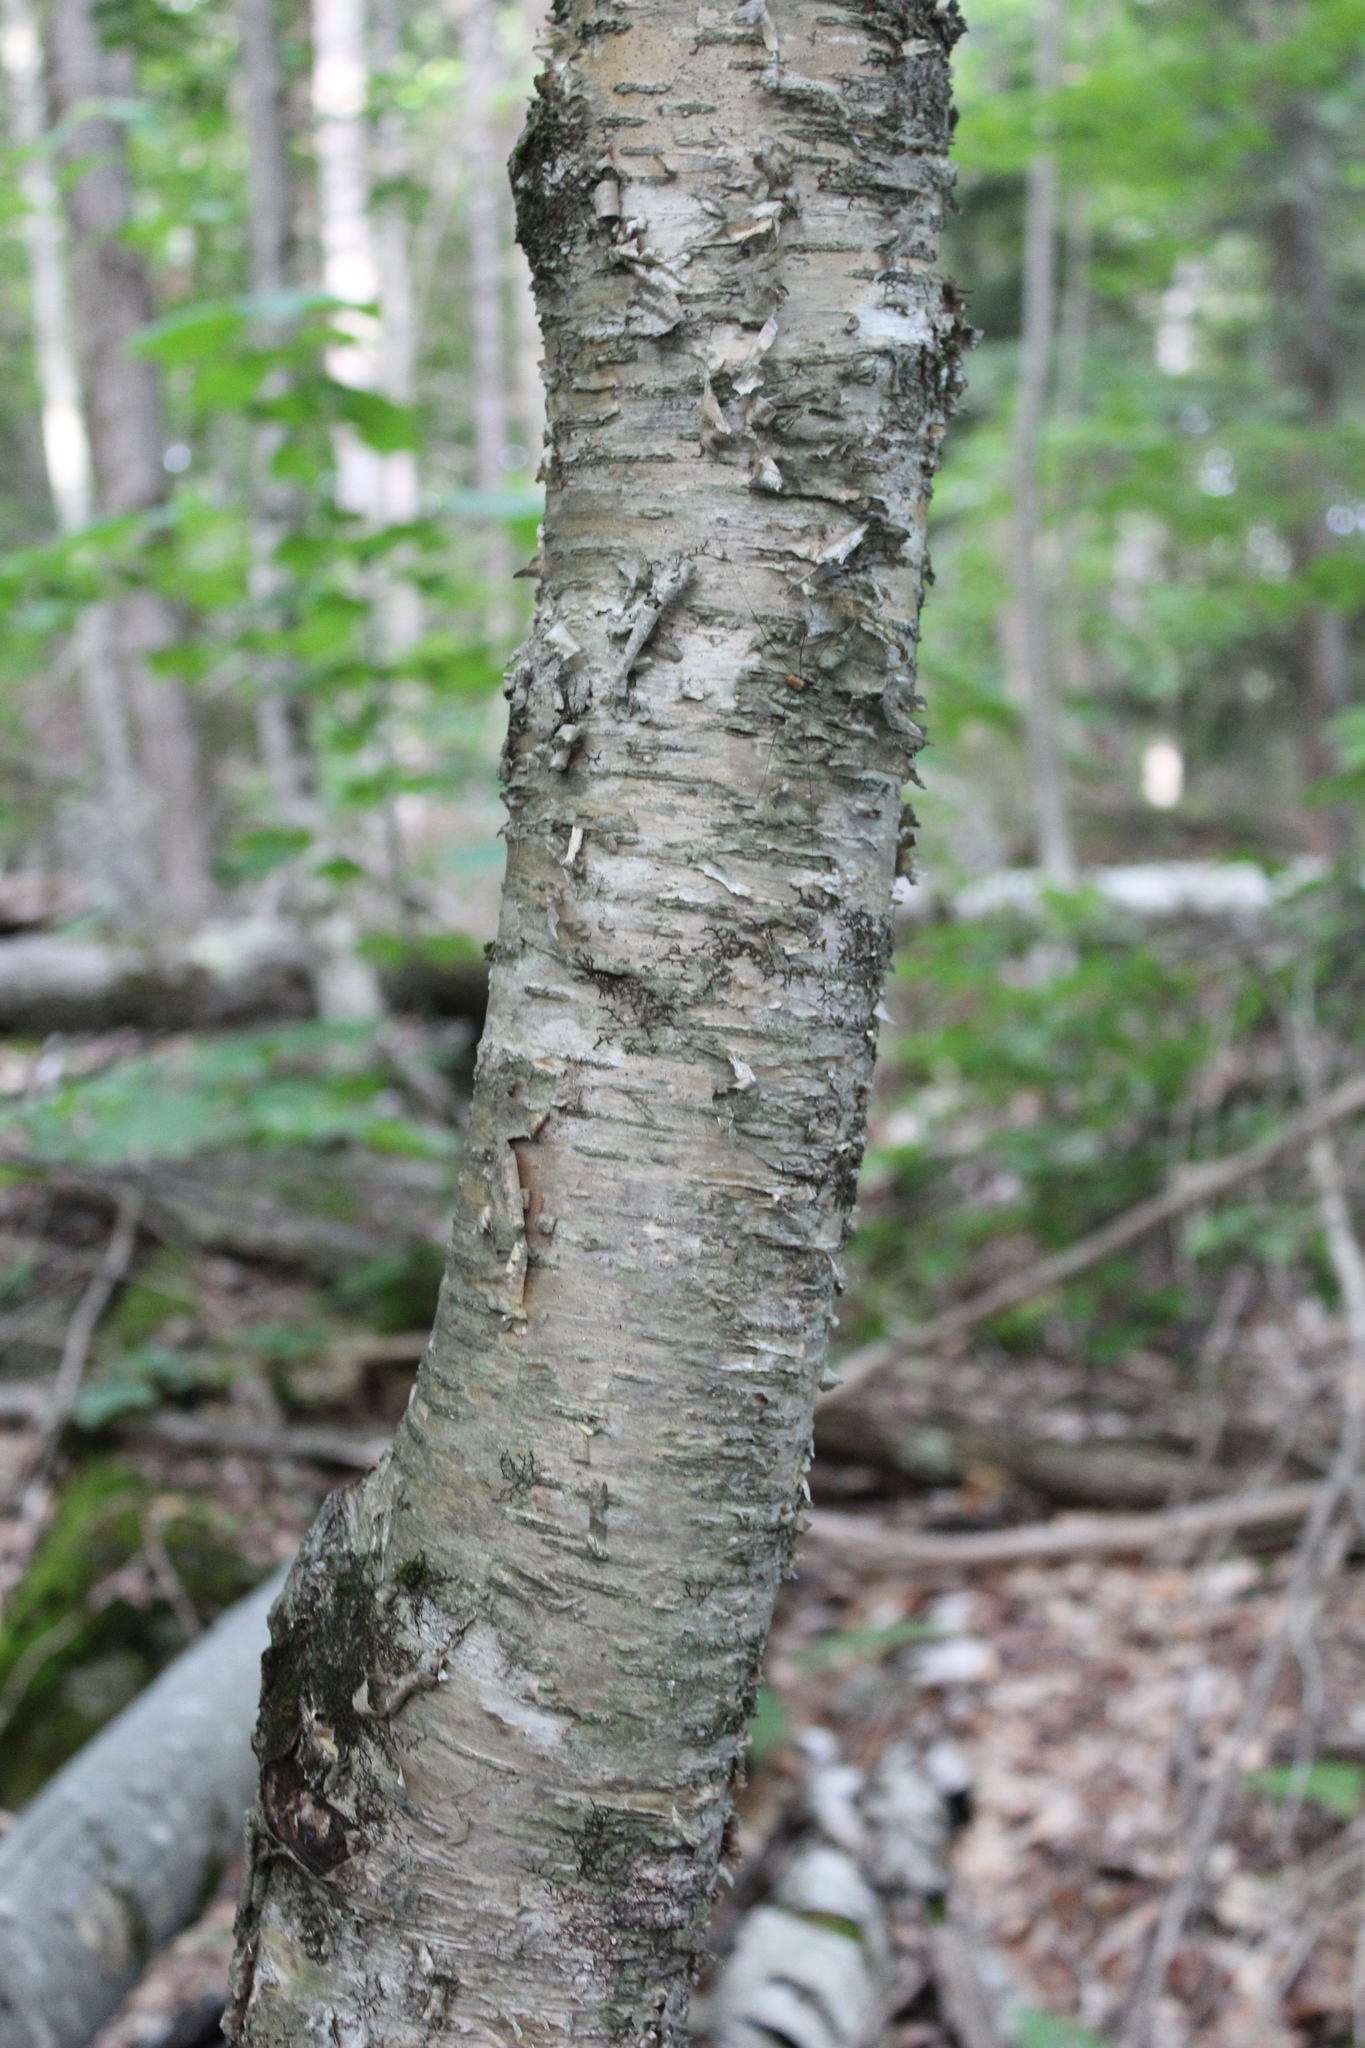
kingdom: Plantae
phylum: Tracheophyta
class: Magnoliopsida
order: Fagales
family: Betulaceae
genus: Betula
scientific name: Betula alleghaniensis
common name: Yellow birch
